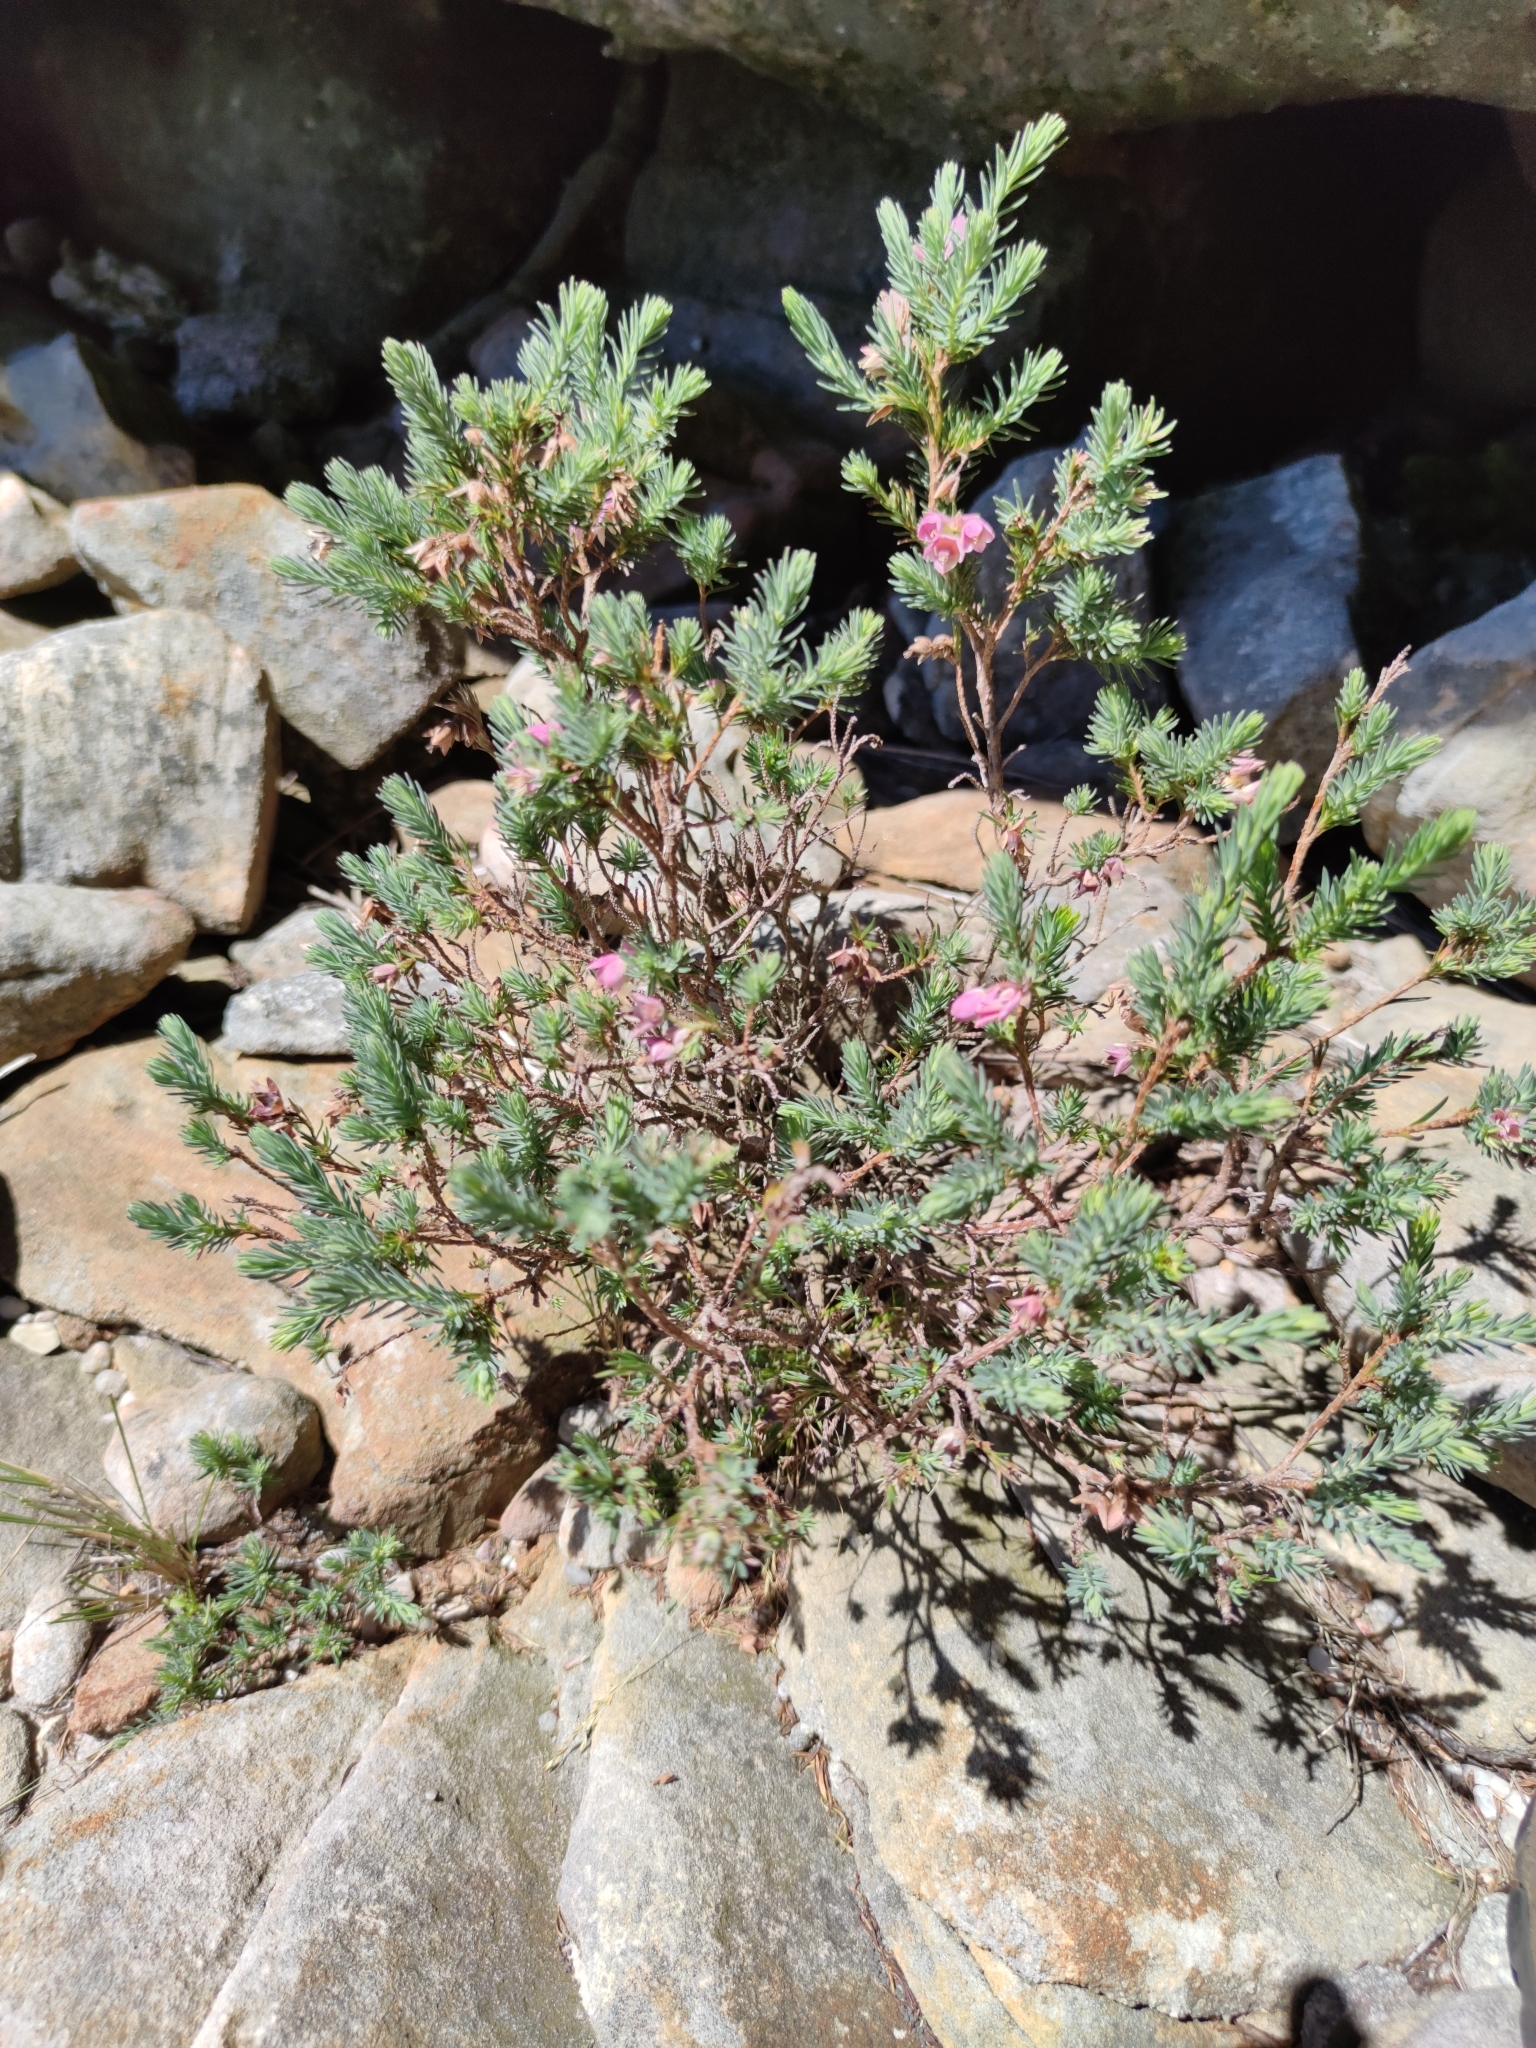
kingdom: Plantae
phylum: Tracheophyta
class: Magnoliopsida
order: Ericales
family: Ericaceae
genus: Erica
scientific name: Erica glauca
